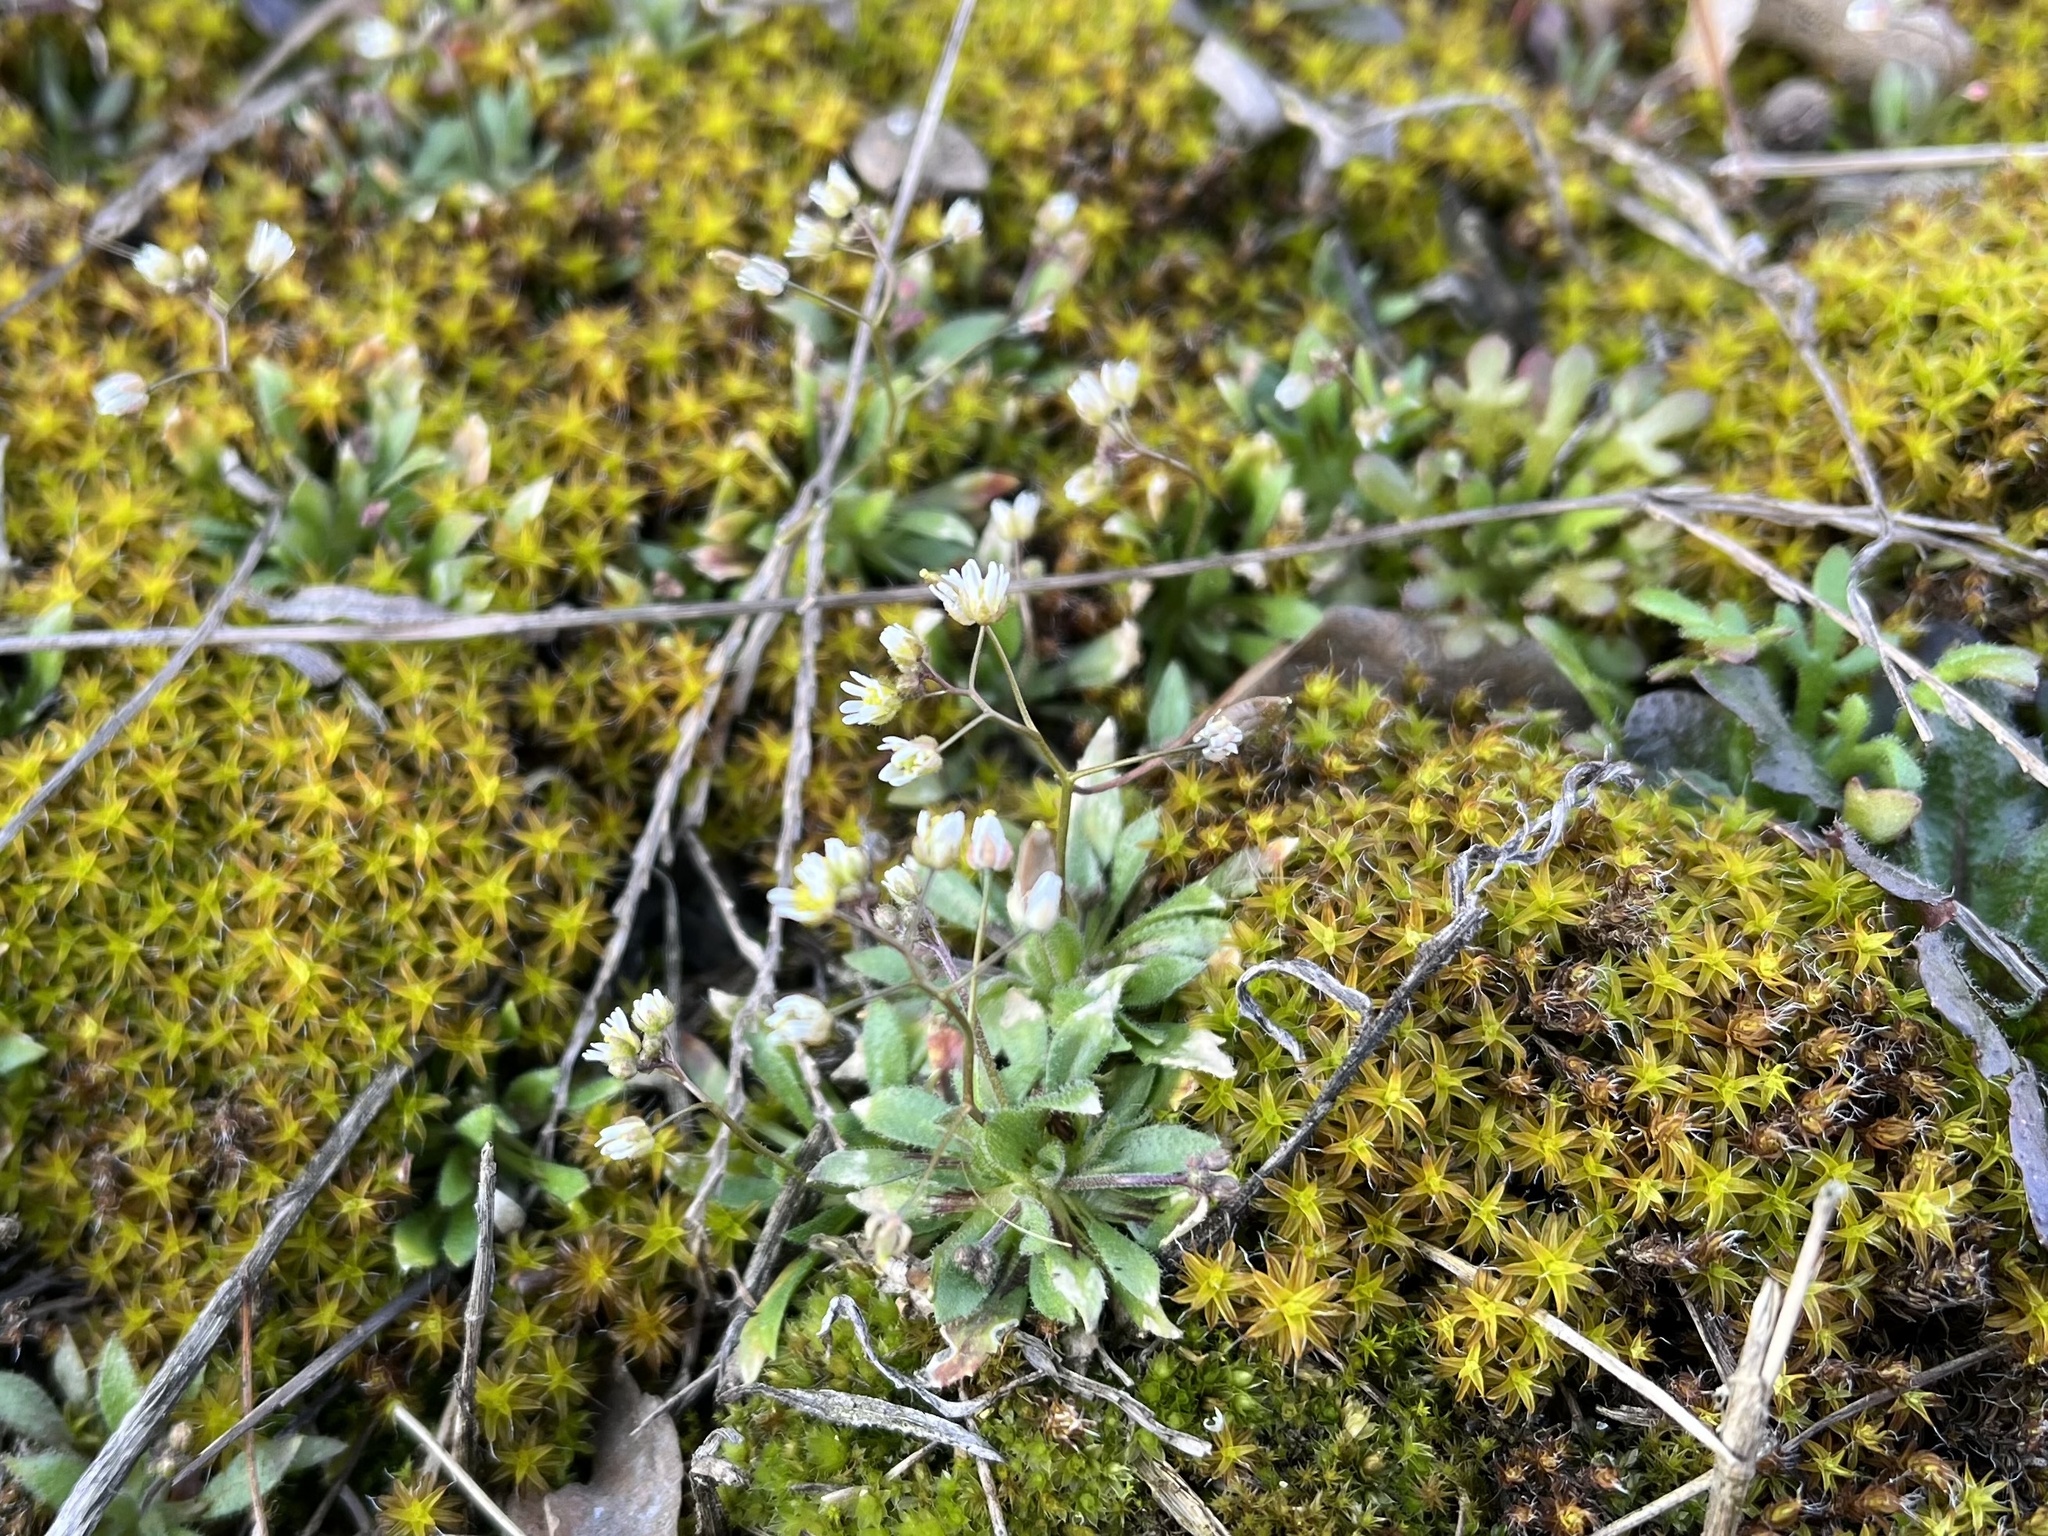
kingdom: Plantae
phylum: Tracheophyta
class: Magnoliopsida
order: Brassicales
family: Brassicaceae
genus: Draba
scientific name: Draba verna
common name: Spring draba
